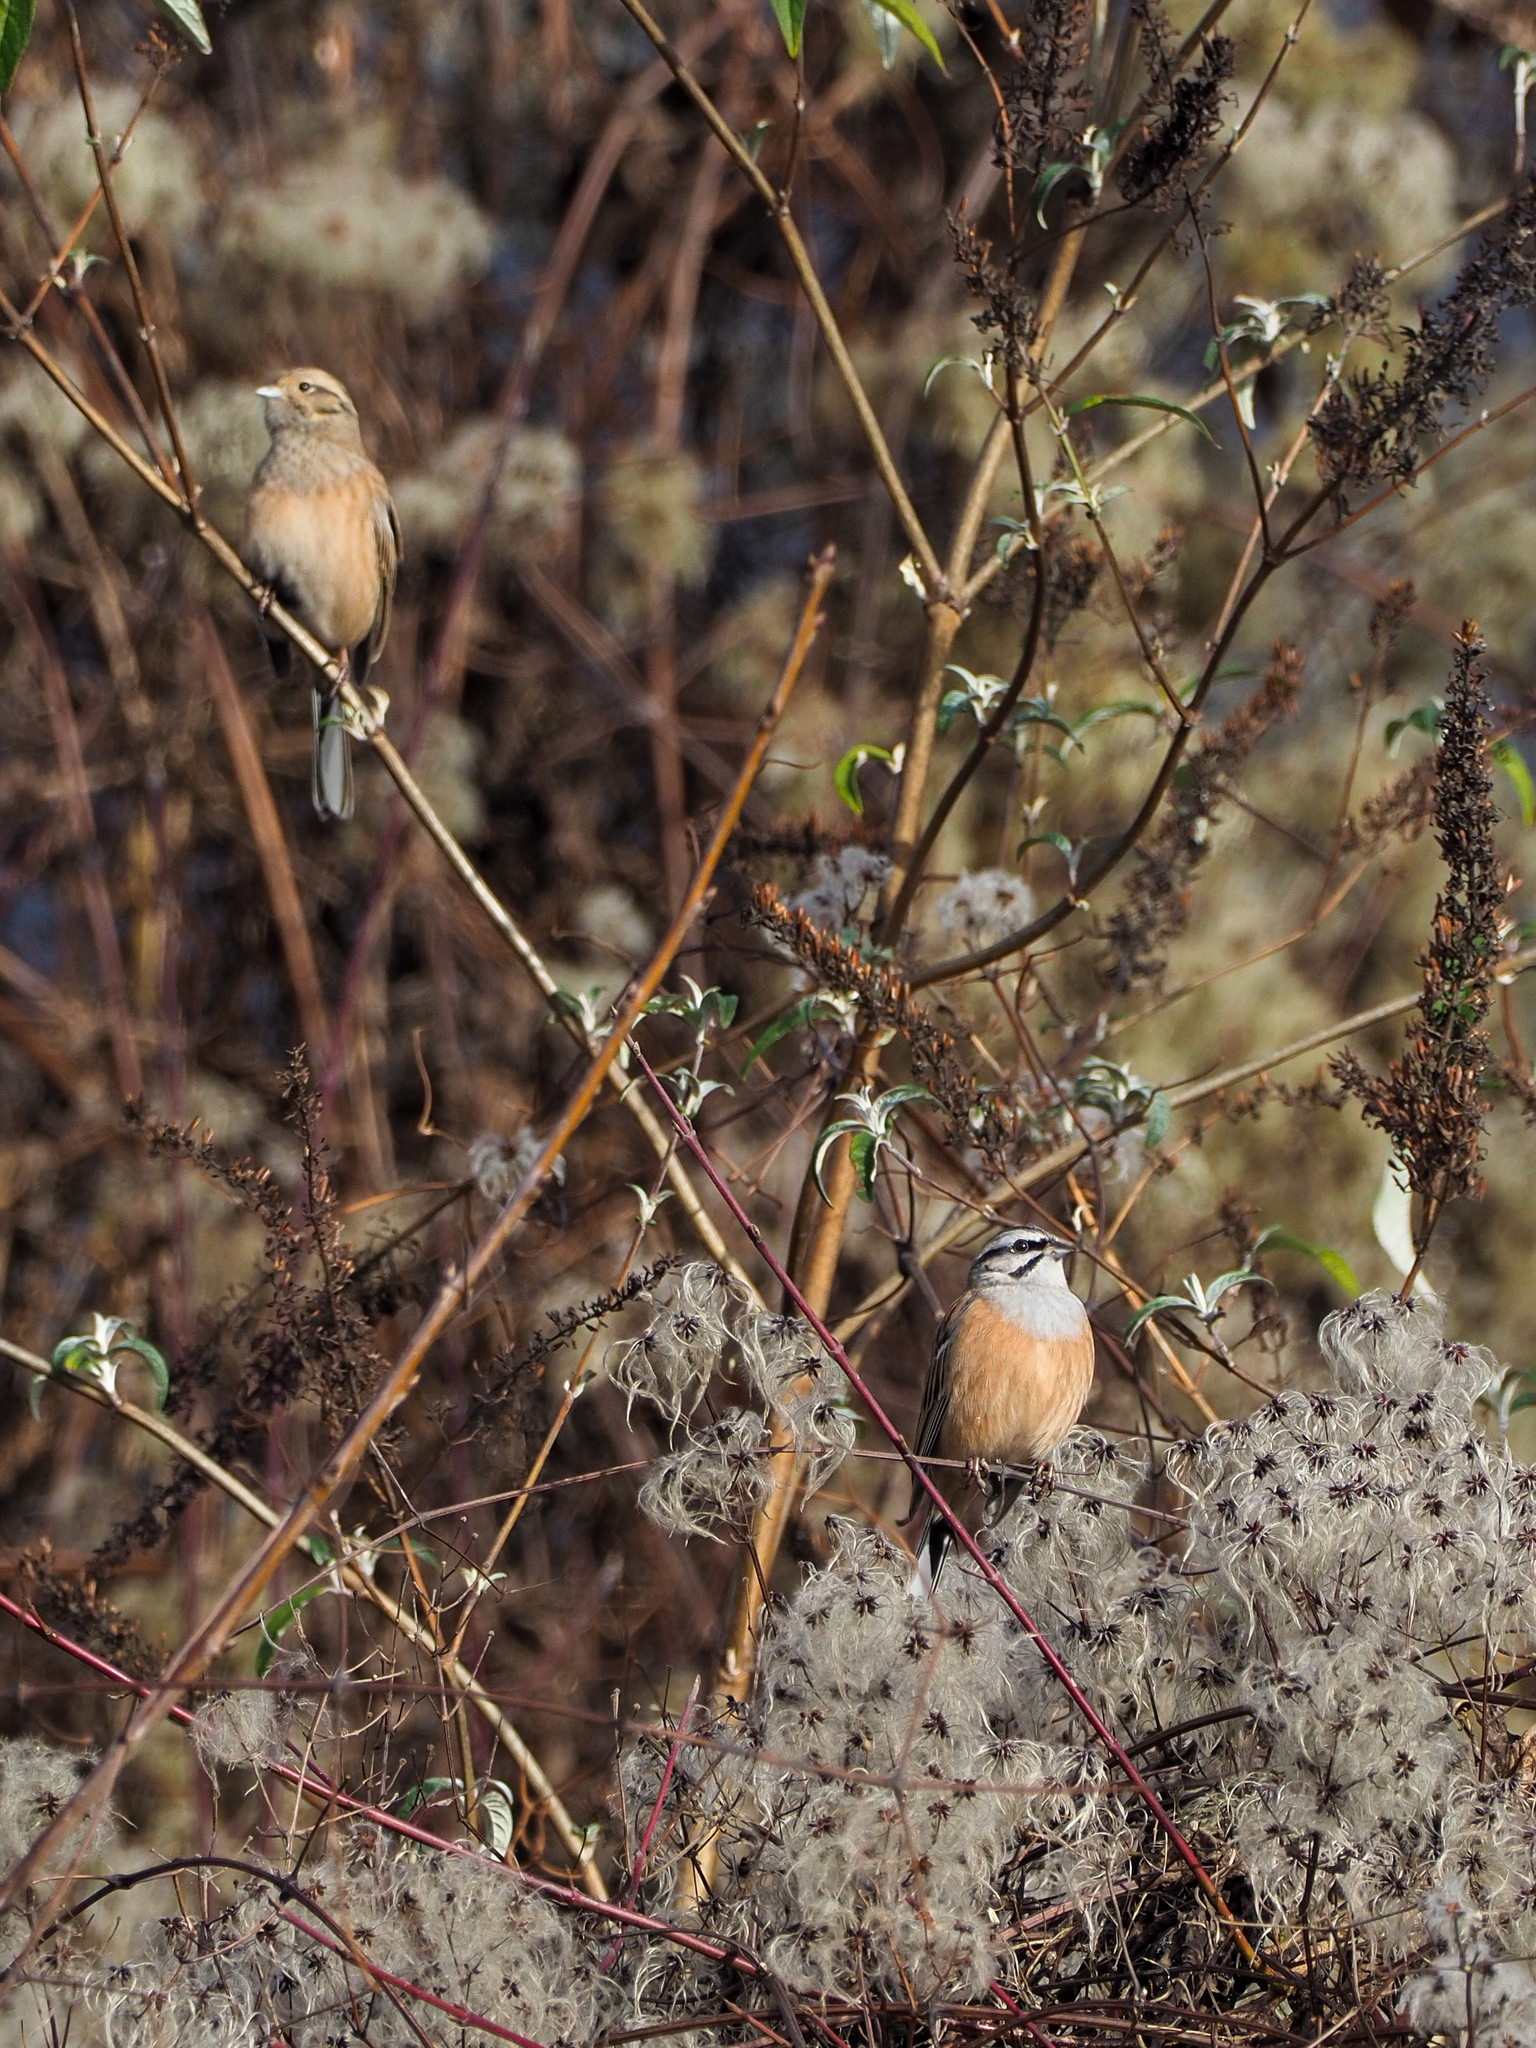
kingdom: Animalia
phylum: Chordata
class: Aves
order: Passeriformes
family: Emberizidae
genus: Emberiza
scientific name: Emberiza cia
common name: Rock bunting
